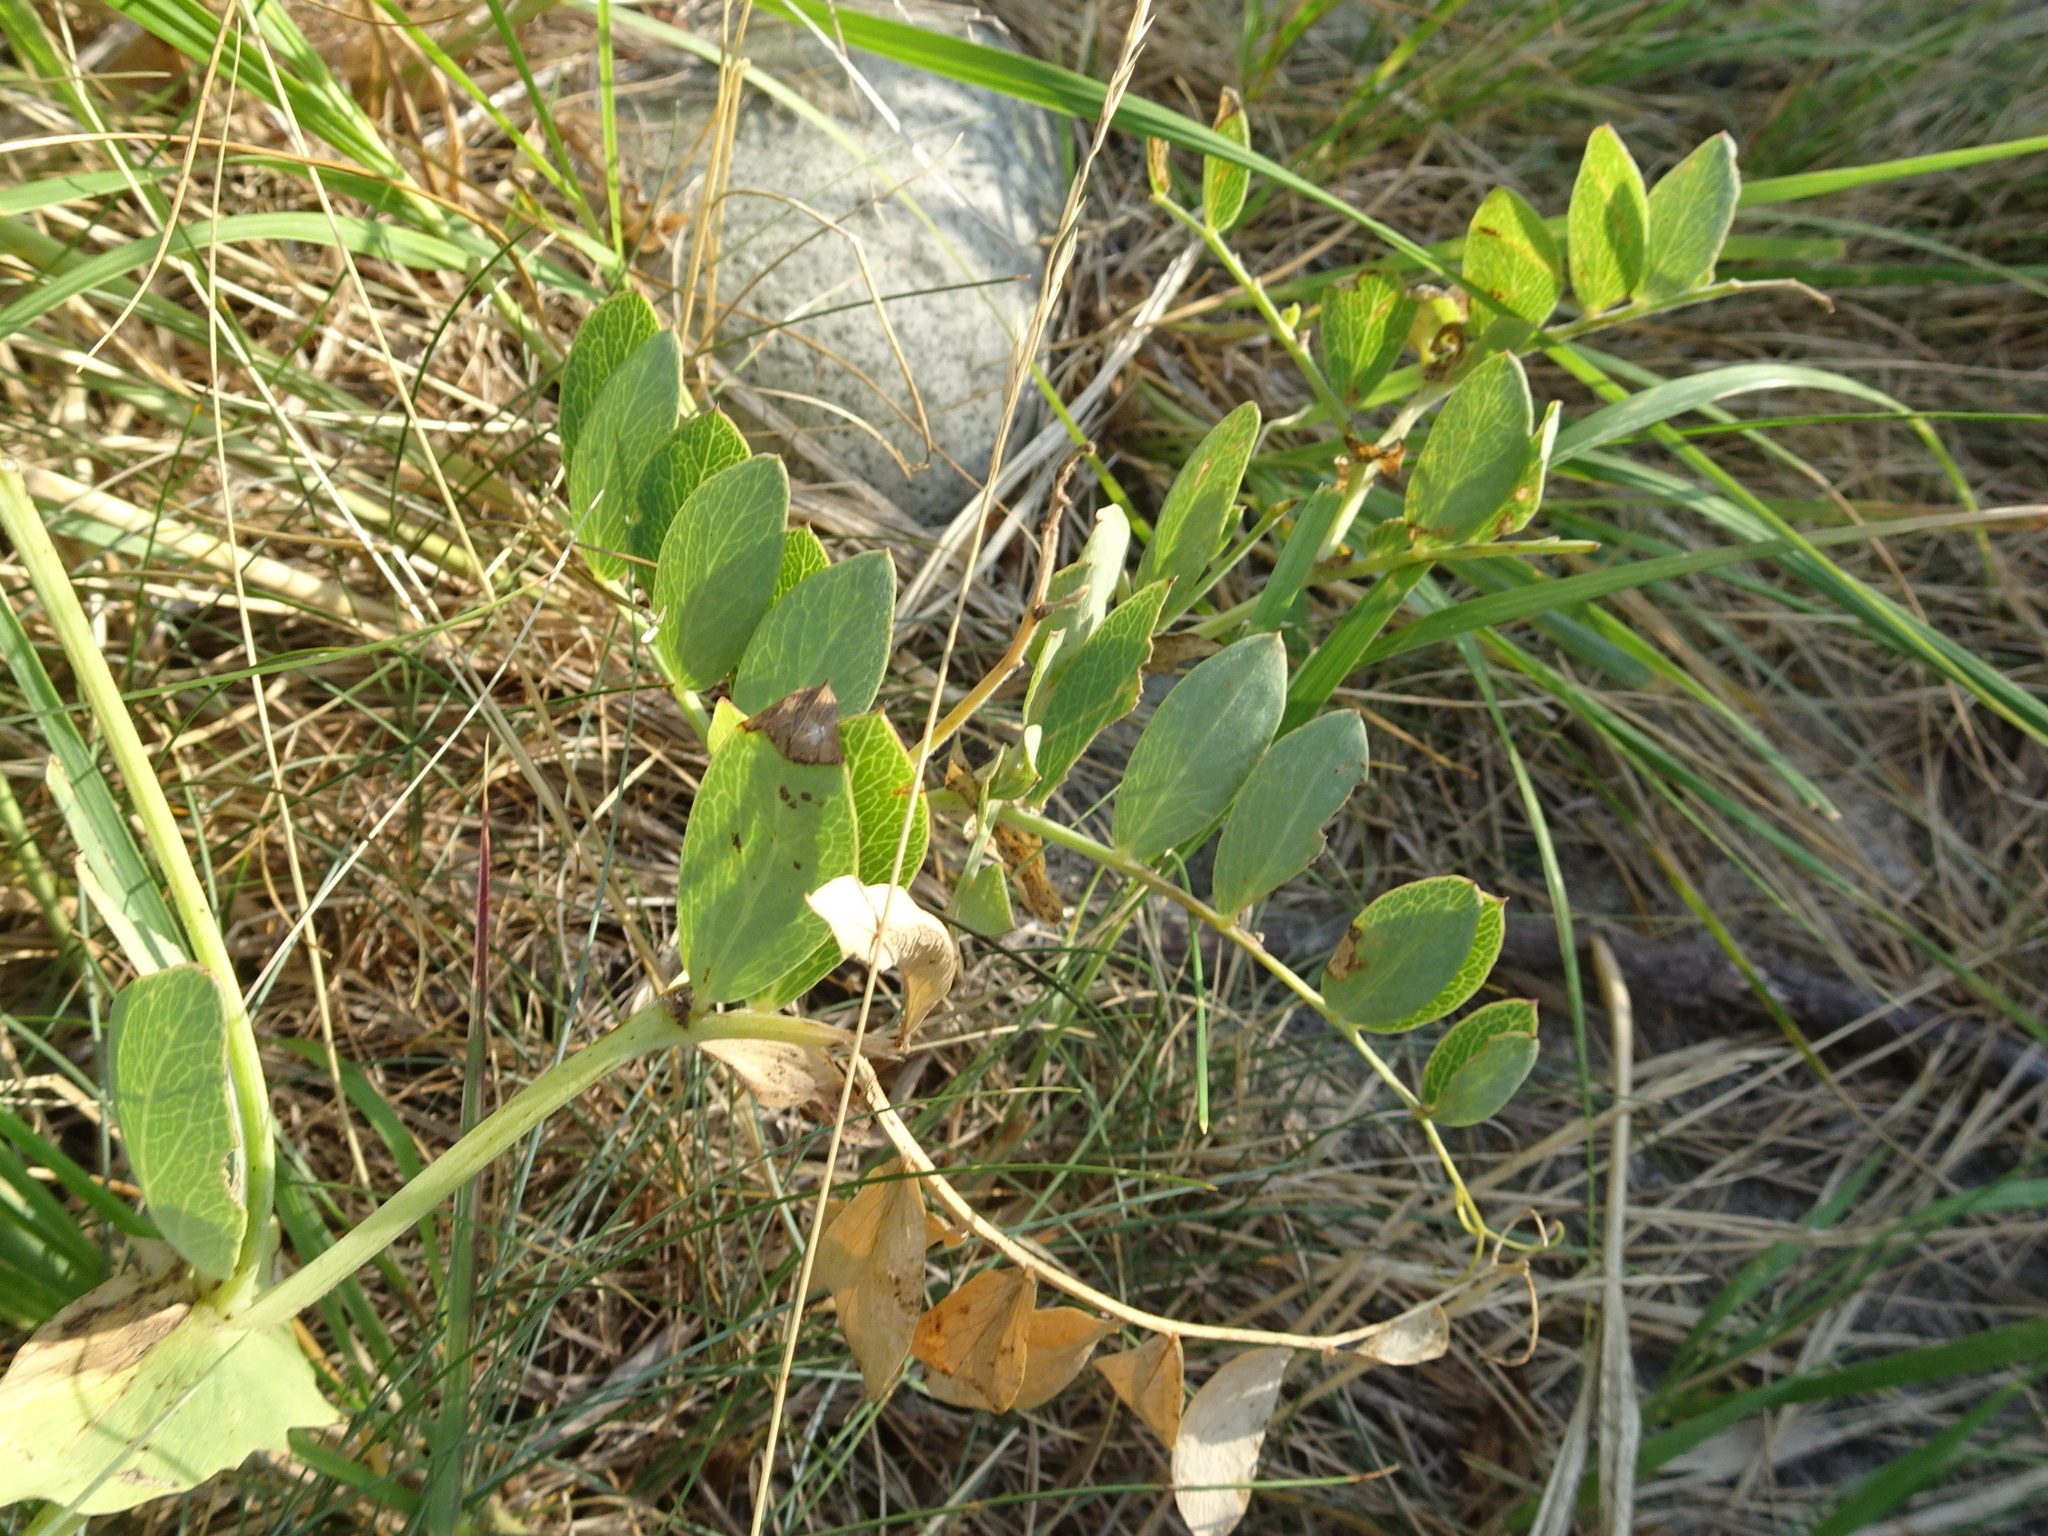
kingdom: Plantae
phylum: Tracheophyta
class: Magnoliopsida
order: Fabales
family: Fabaceae
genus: Lathyrus
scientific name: Lathyrus japonicus
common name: Sea pea
